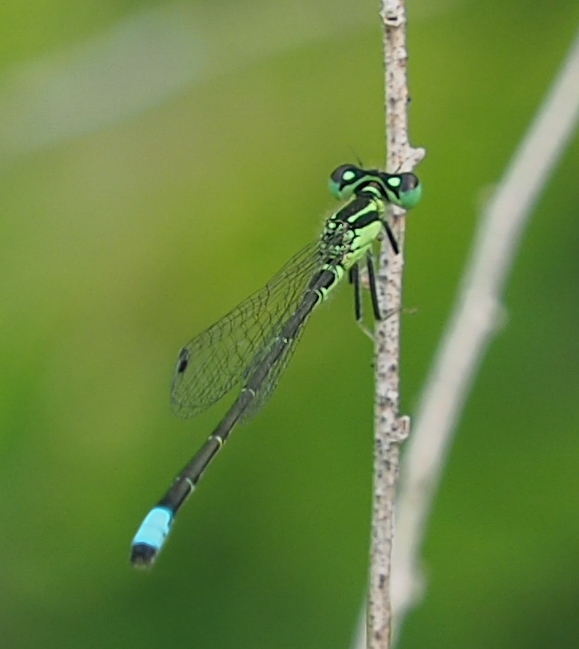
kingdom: Animalia
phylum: Arthropoda
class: Insecta
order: Odonata
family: Coenagrionidae
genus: Ischnura
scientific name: Ischnura verticalis
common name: Eastern forktail
